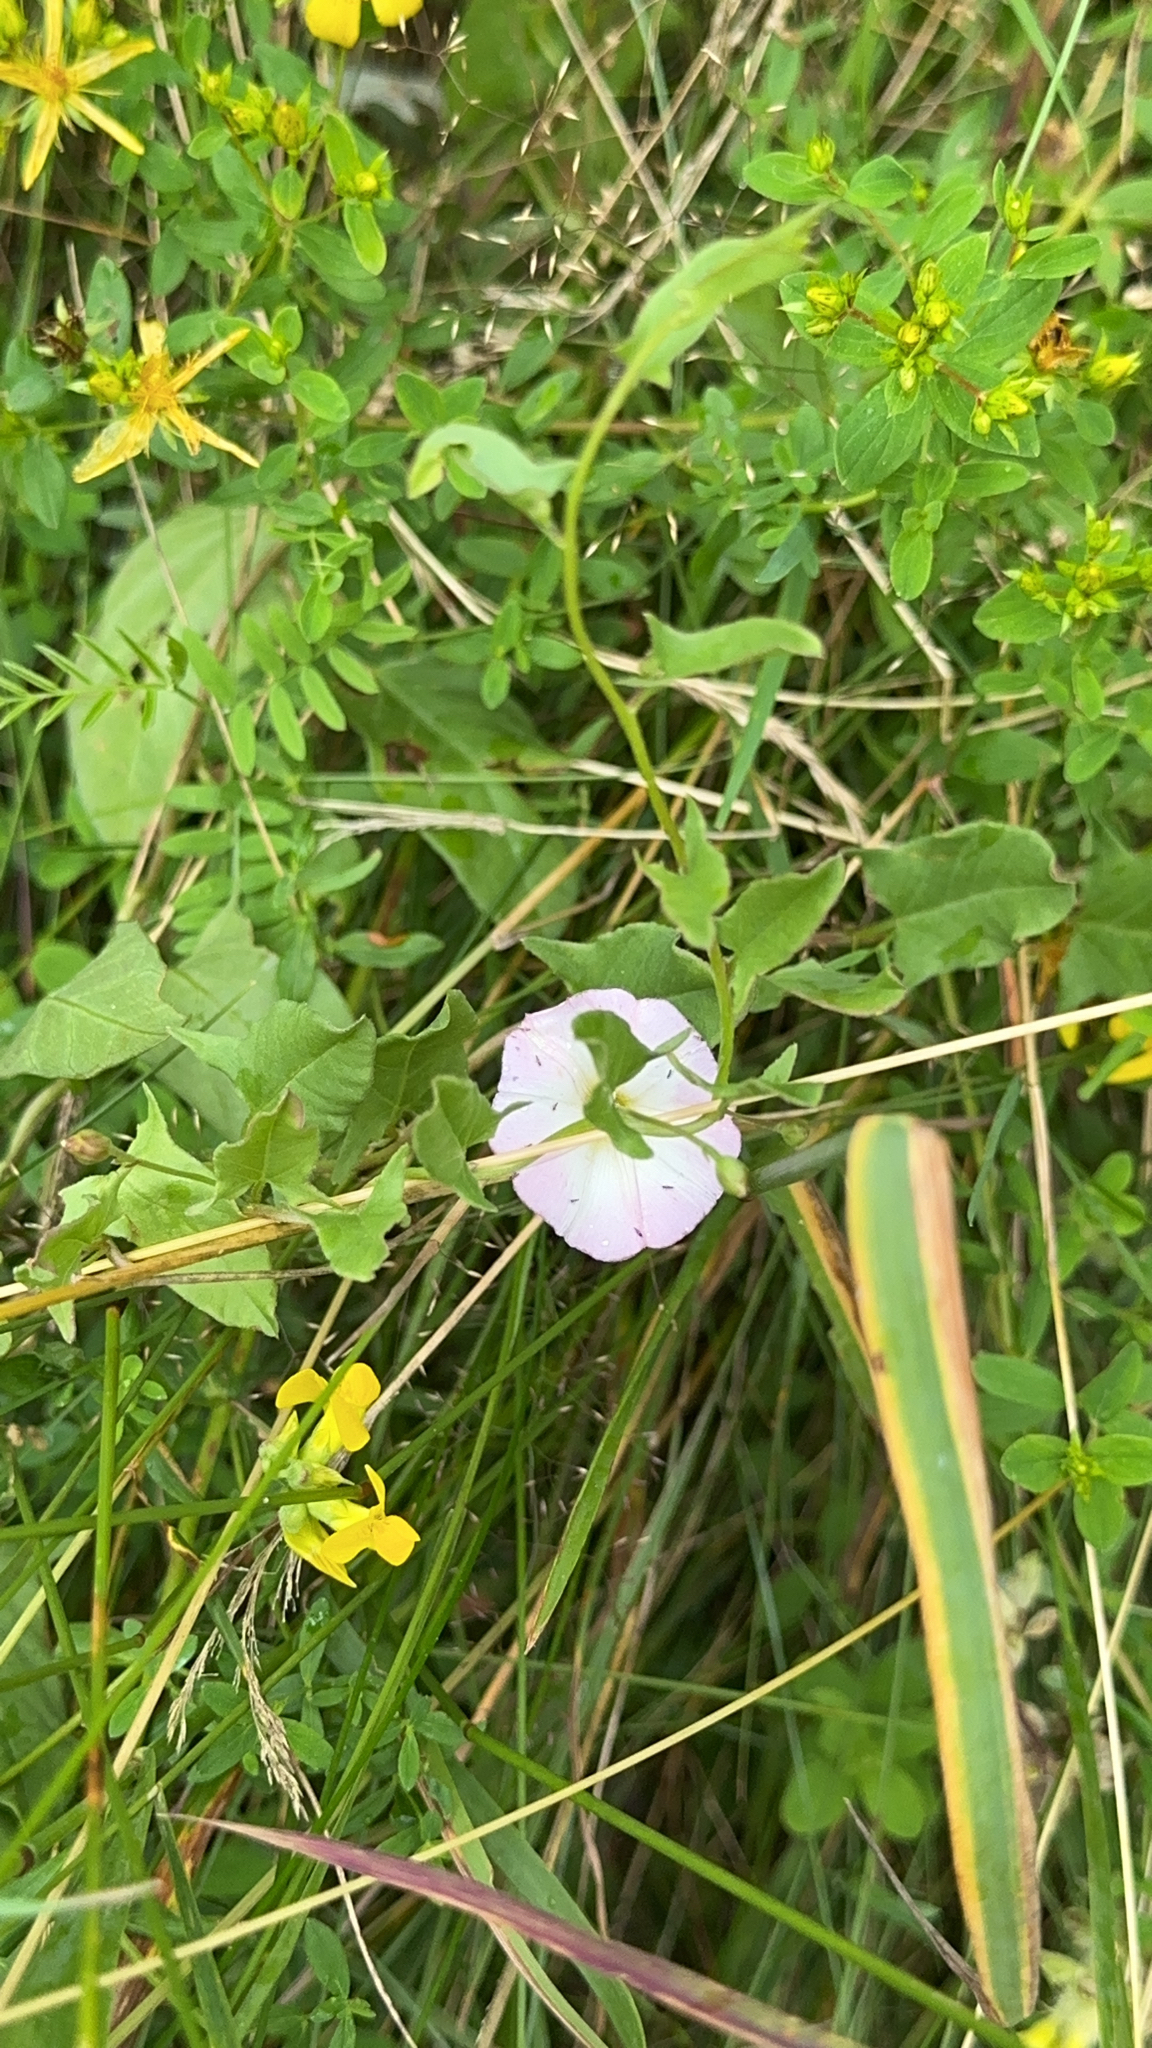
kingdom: Plantae
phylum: Tracheophyta
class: Magnoliopsida
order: Solanales
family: Convolvulaceae
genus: Convolvulus
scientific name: Convolvulus arvensis
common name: Field bindweed
